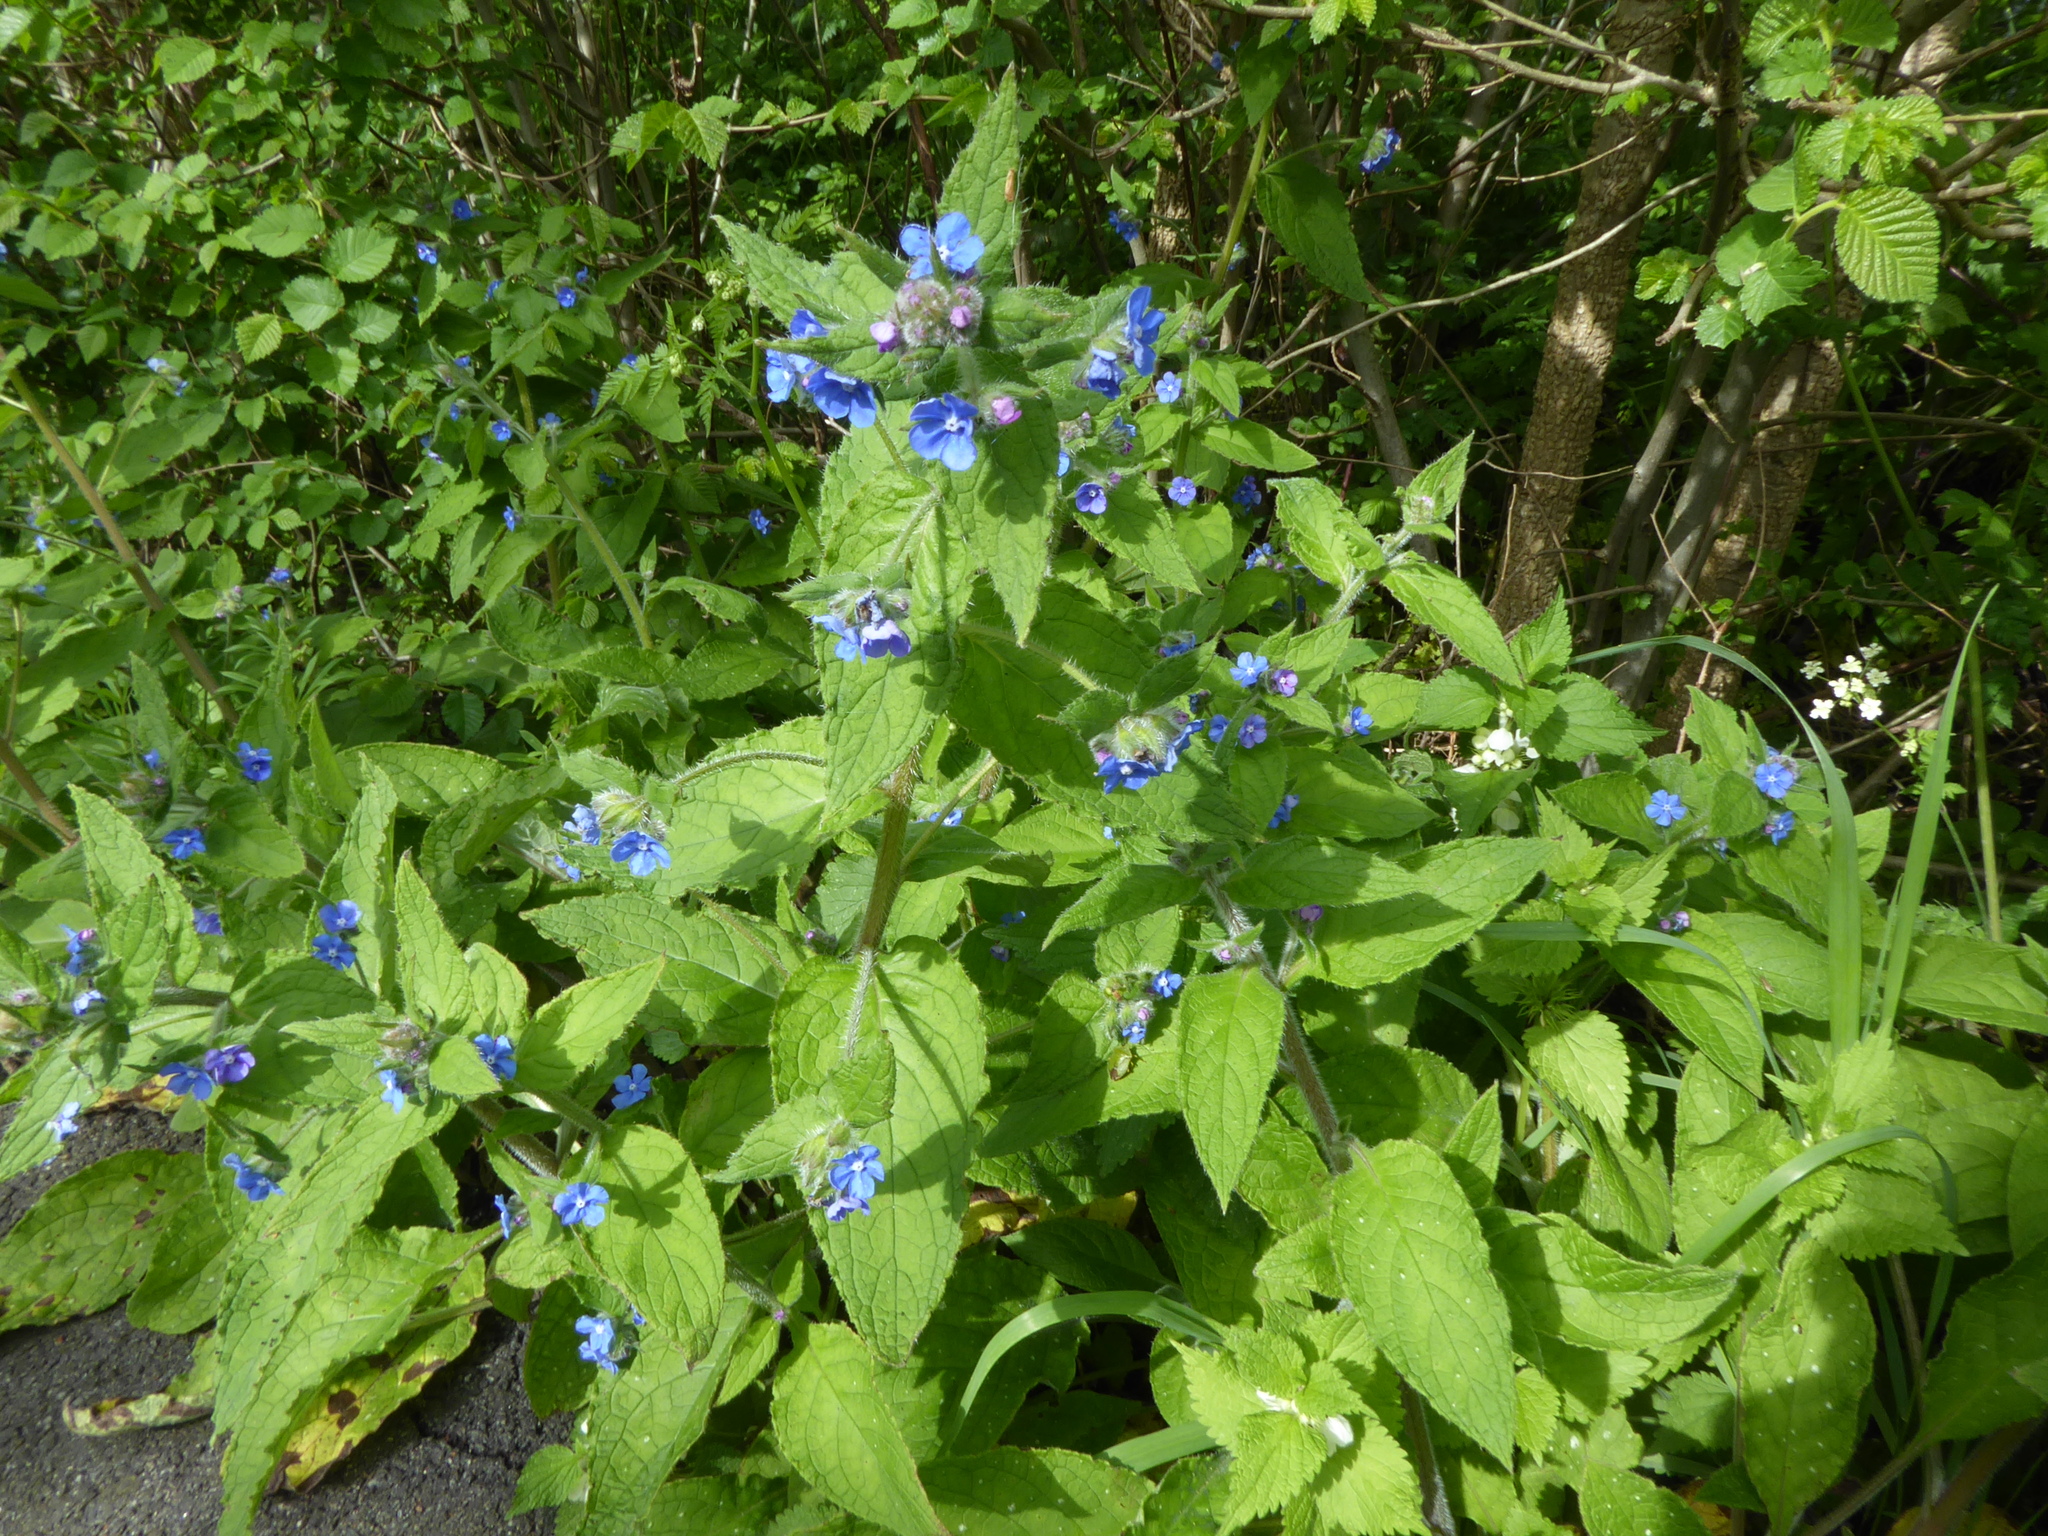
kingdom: Plantae
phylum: Tracheophyta
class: Magnoliopsida
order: Boraginales
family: Boraginaceae
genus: Pentaglottis
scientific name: Pentaglottis sempervirens
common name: Green alkanet
